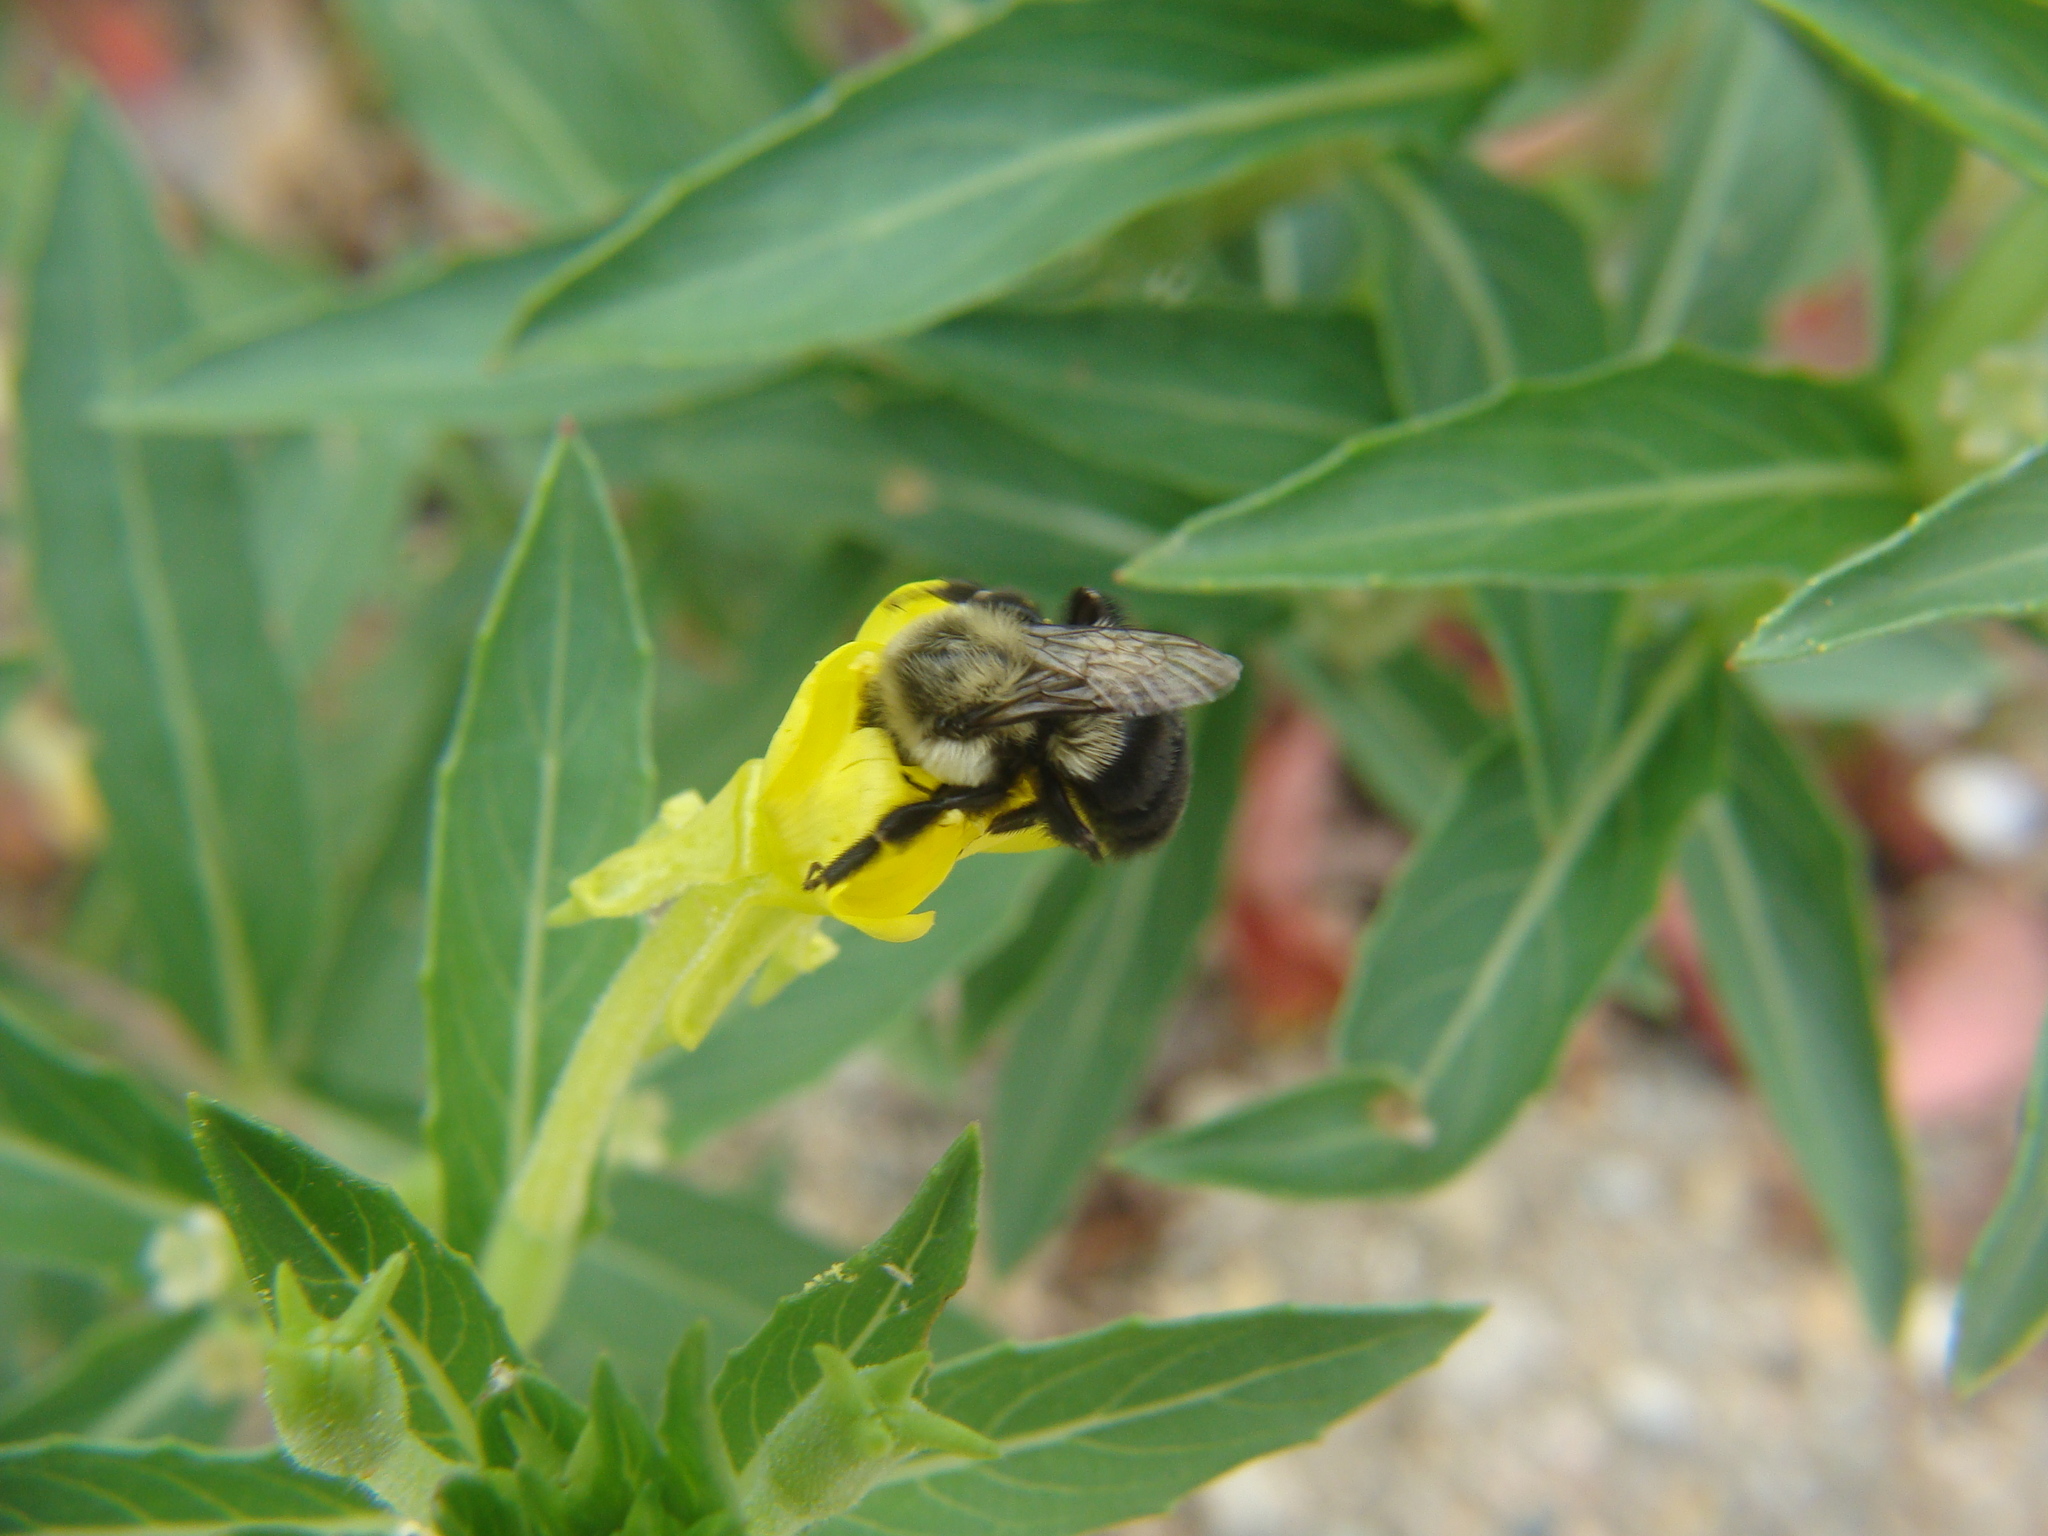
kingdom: Animalia
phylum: Arthropoda
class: Insecta
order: Hymenoptera
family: Apidae
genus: Bombus
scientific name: Bombus impatiens
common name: Common eastern bumble bee
